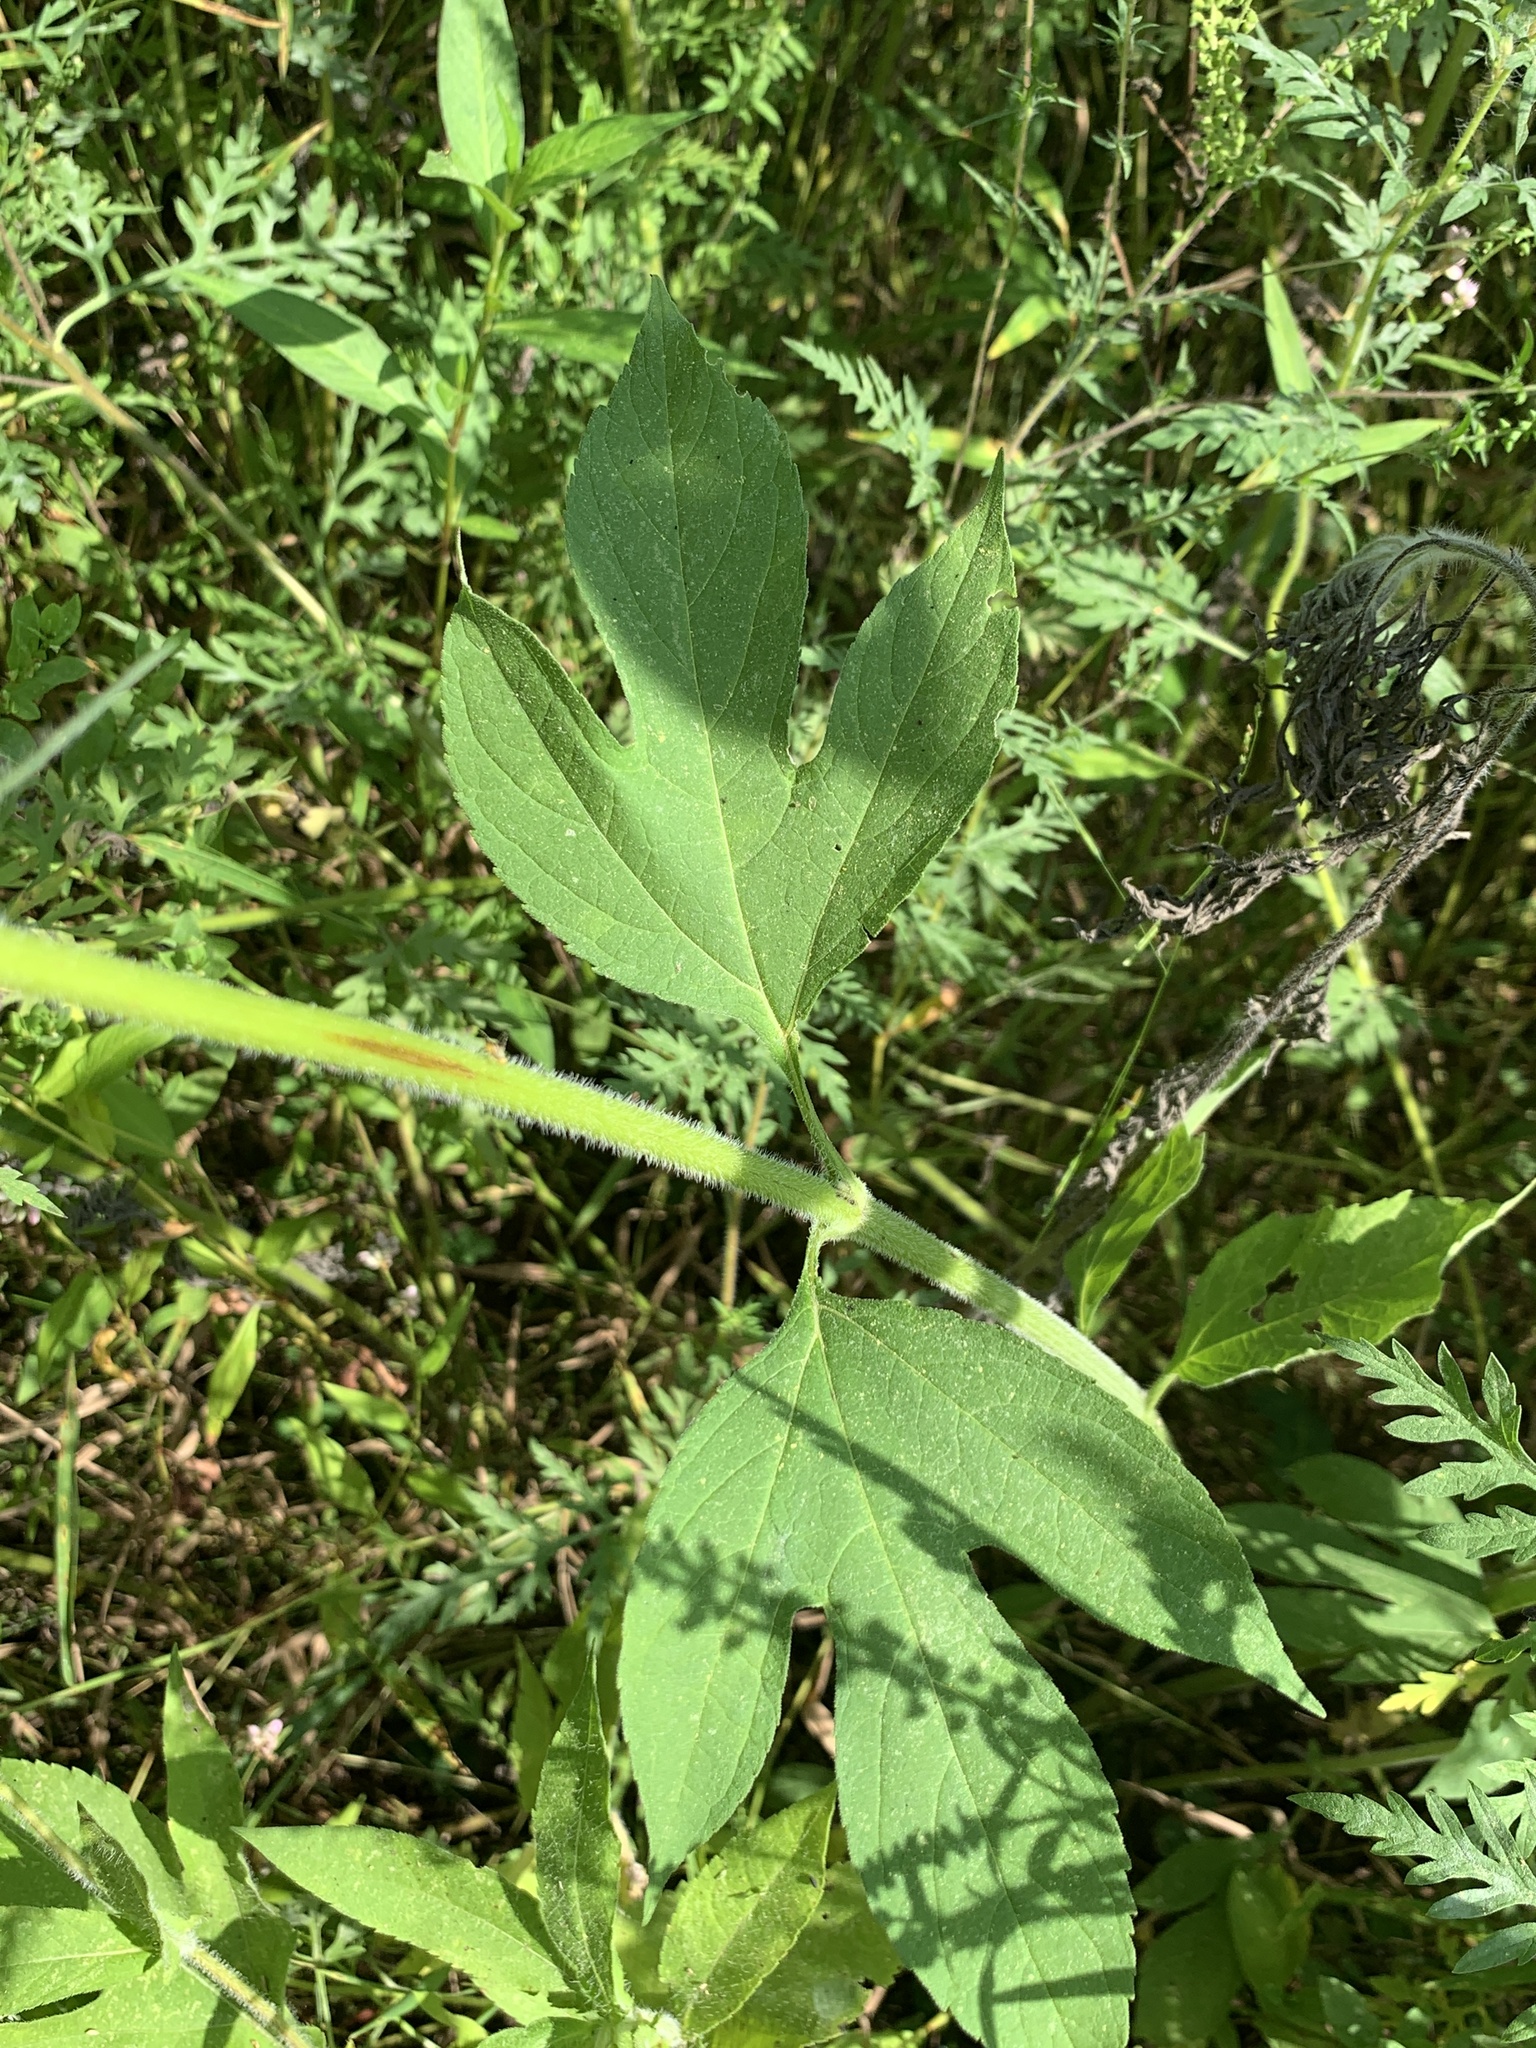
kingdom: Plantae
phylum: Tracheophyta
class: Magnoliopsida
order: Asterales
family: Asteraceae
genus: Ambrosia
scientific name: Ambrosia trifida
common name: Giant ragweed
